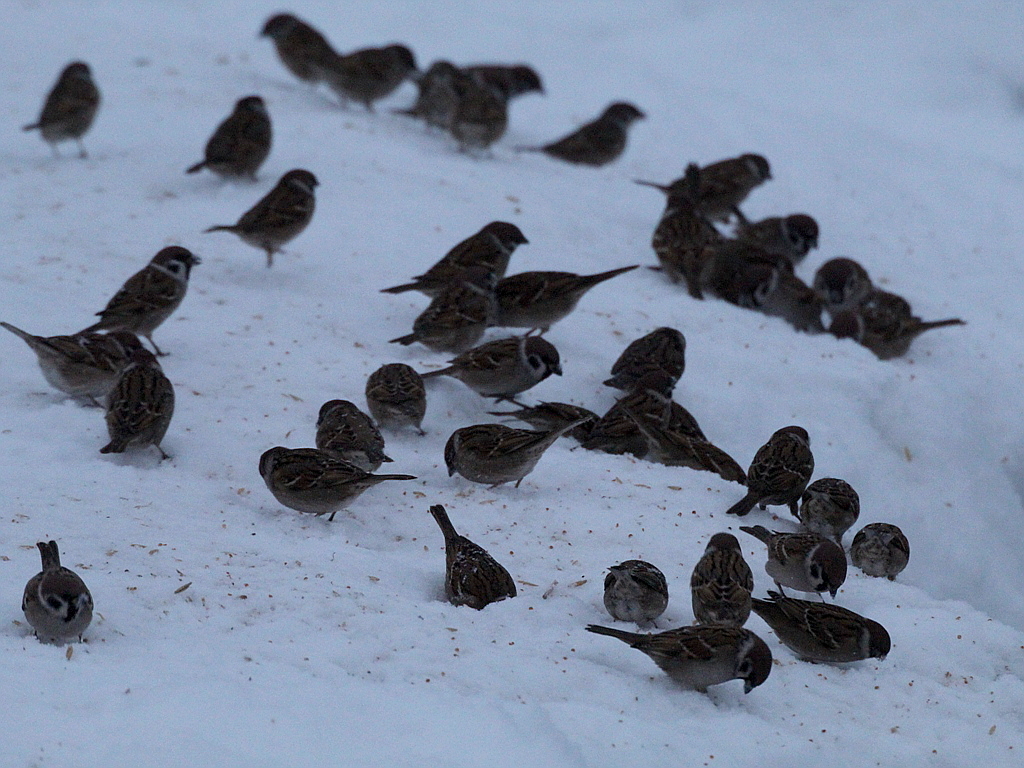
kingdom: Animalia
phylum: Chordata
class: Aves
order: Passeriformes
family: Passeridae
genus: Passer
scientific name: Passer montanus
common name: Eurasian tree sparrow
